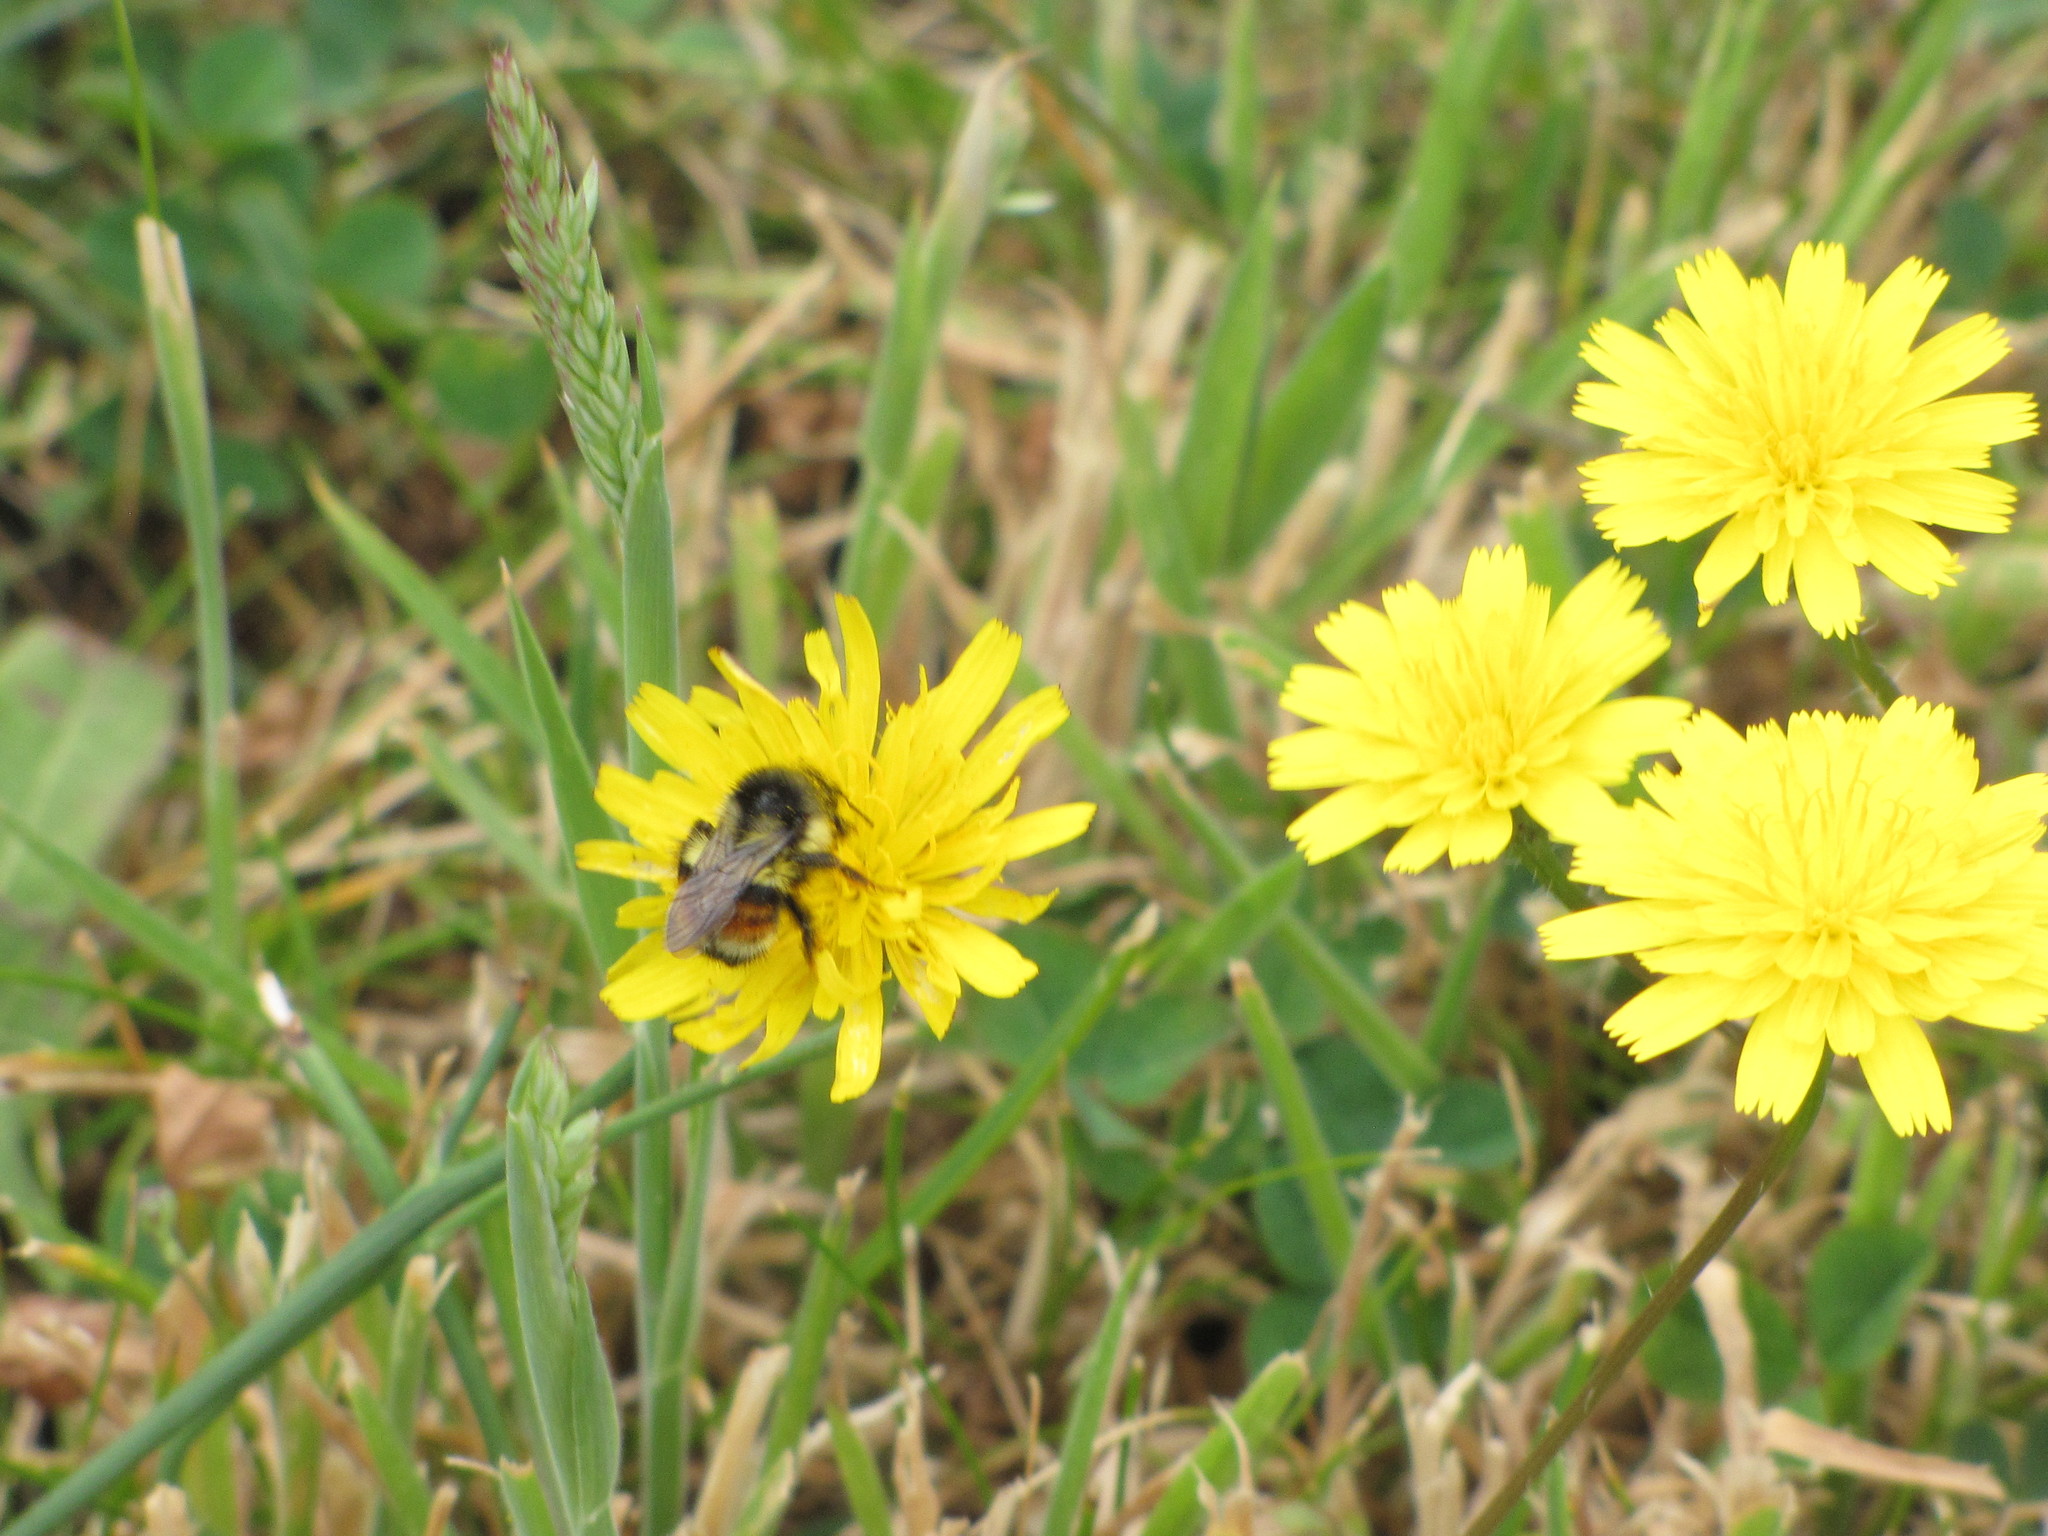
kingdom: Animalia
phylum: Arthropoda
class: Insecta
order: Hymenoptera
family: Apidae
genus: Bombus
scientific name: Bombus vancouverensis
